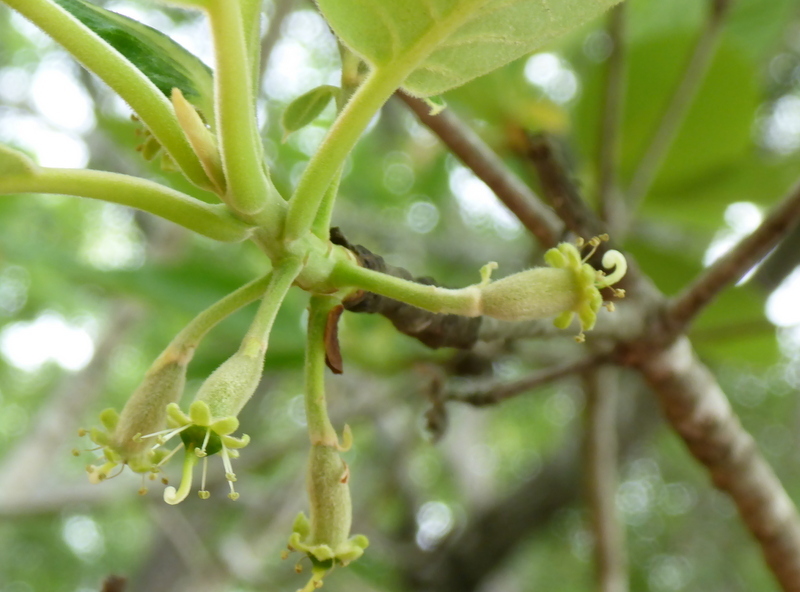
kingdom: Plantae
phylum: Tracheophyta
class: Magnoliopsida
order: Cornales
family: Nyssaceae
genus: Nyssa
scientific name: Nyssa ogeche
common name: Ogeechee tupelo
